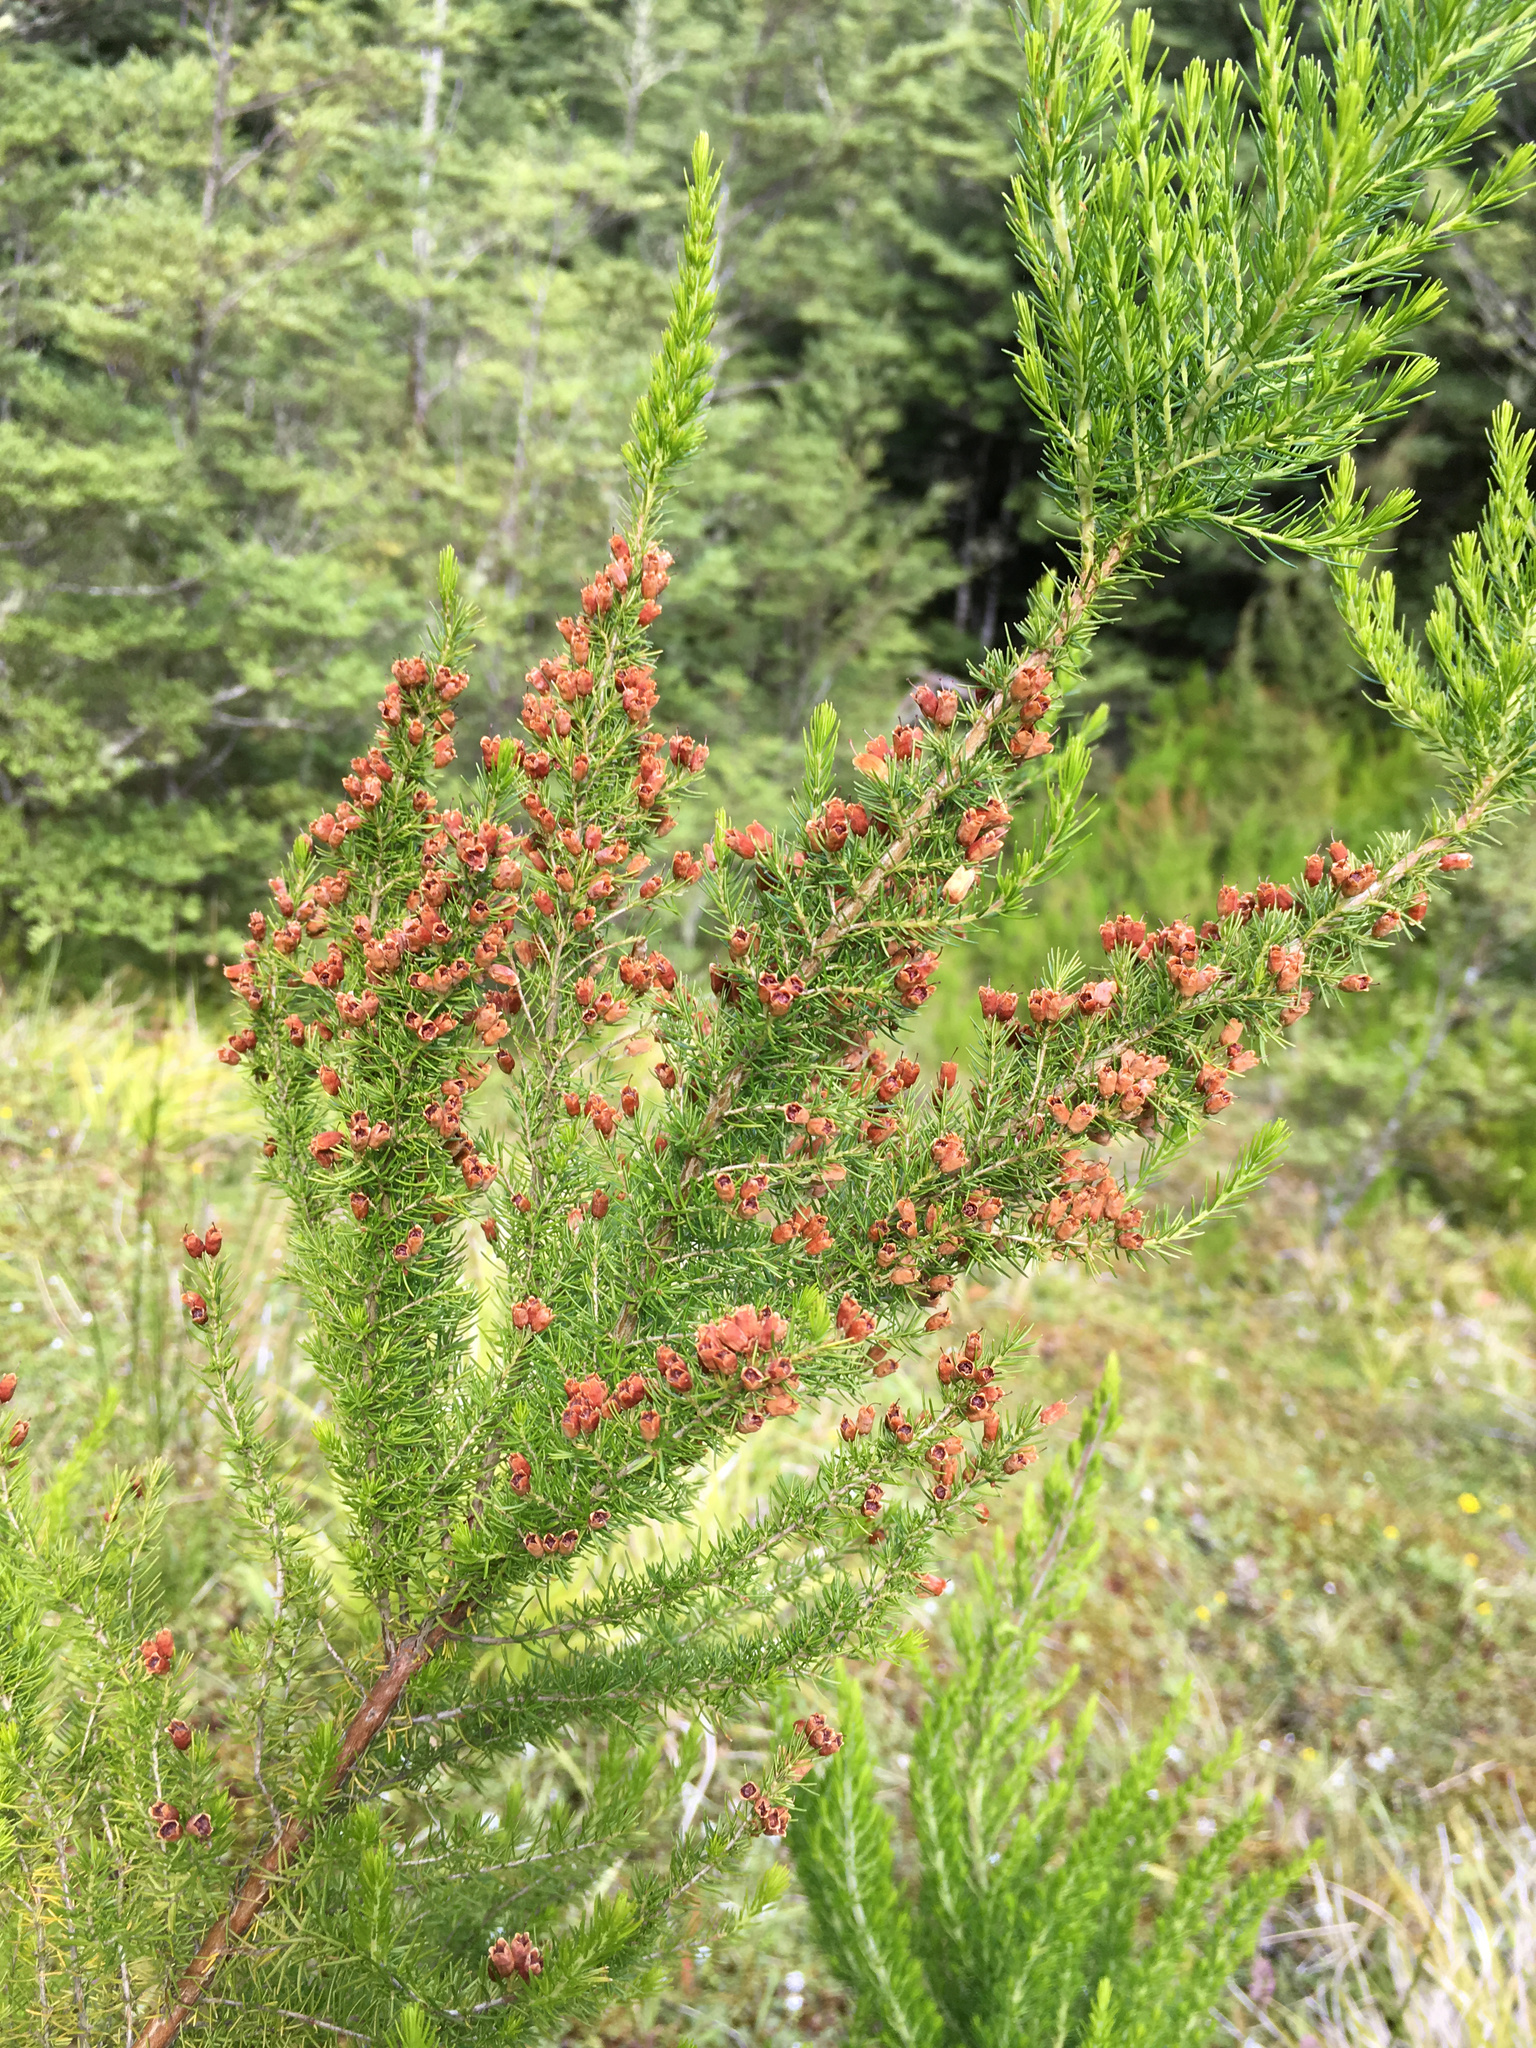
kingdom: Plantae
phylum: Tracheophyta
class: Magnoliopsida
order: Ericales
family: Ericaceae
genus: Erica
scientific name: Erica lusitanica
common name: Spanish heath
